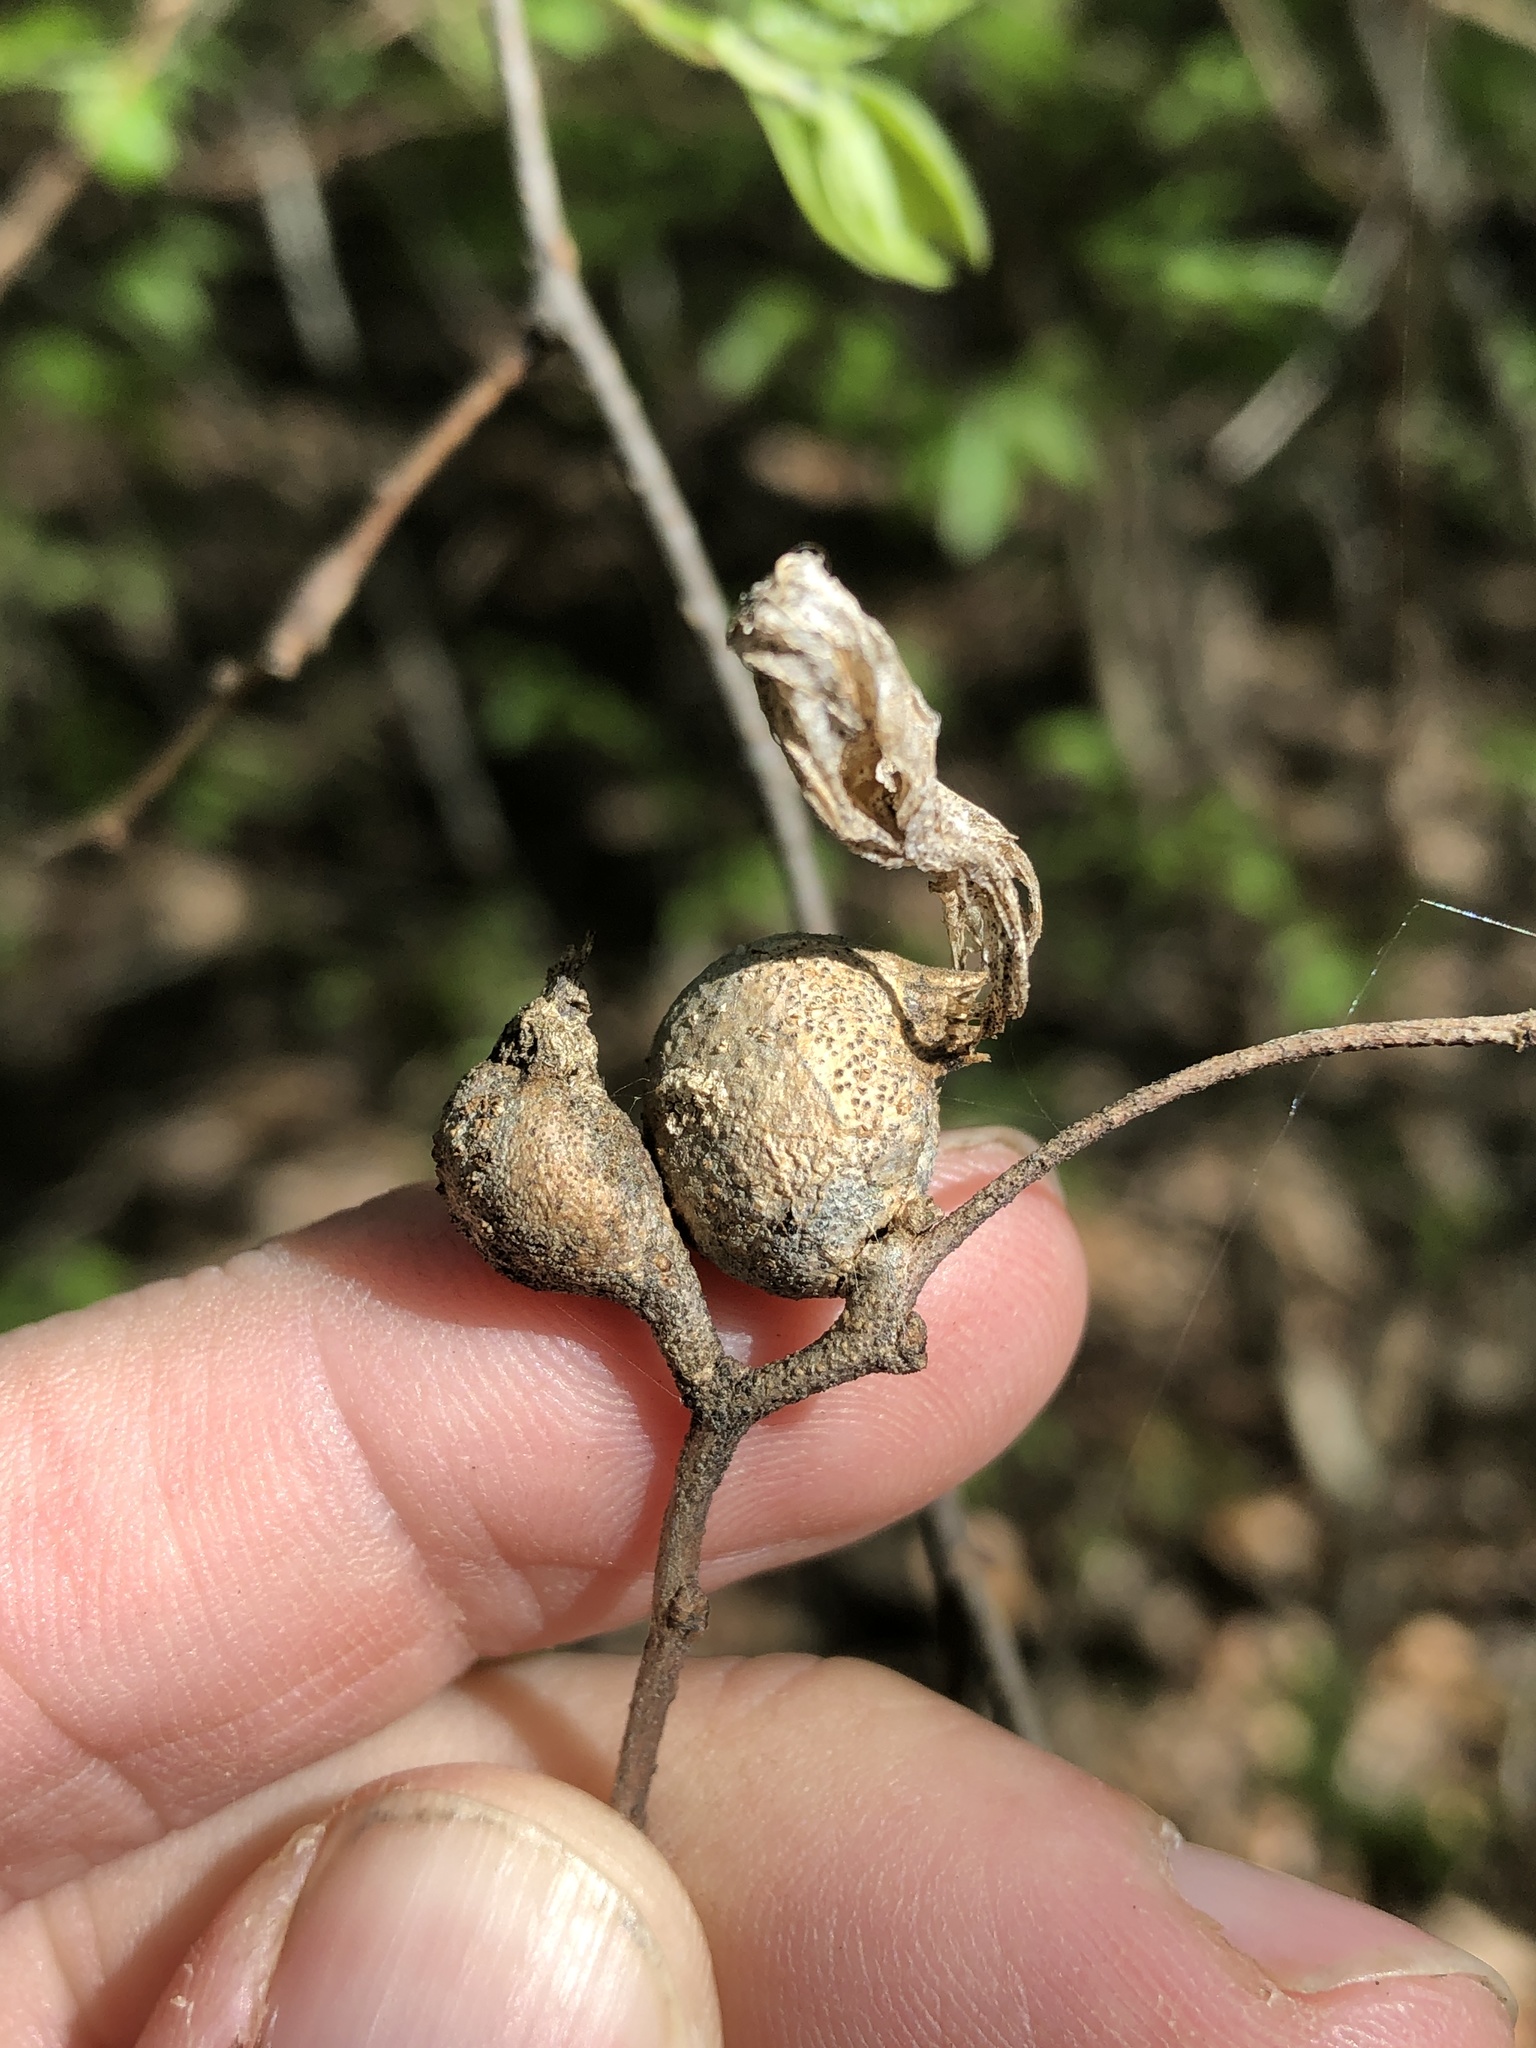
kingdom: Animalia
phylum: Arthropoda
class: Insecta
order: Hemiptera
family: Aphalaridae
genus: Pachypsylla
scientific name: Pachypsylla venusta
